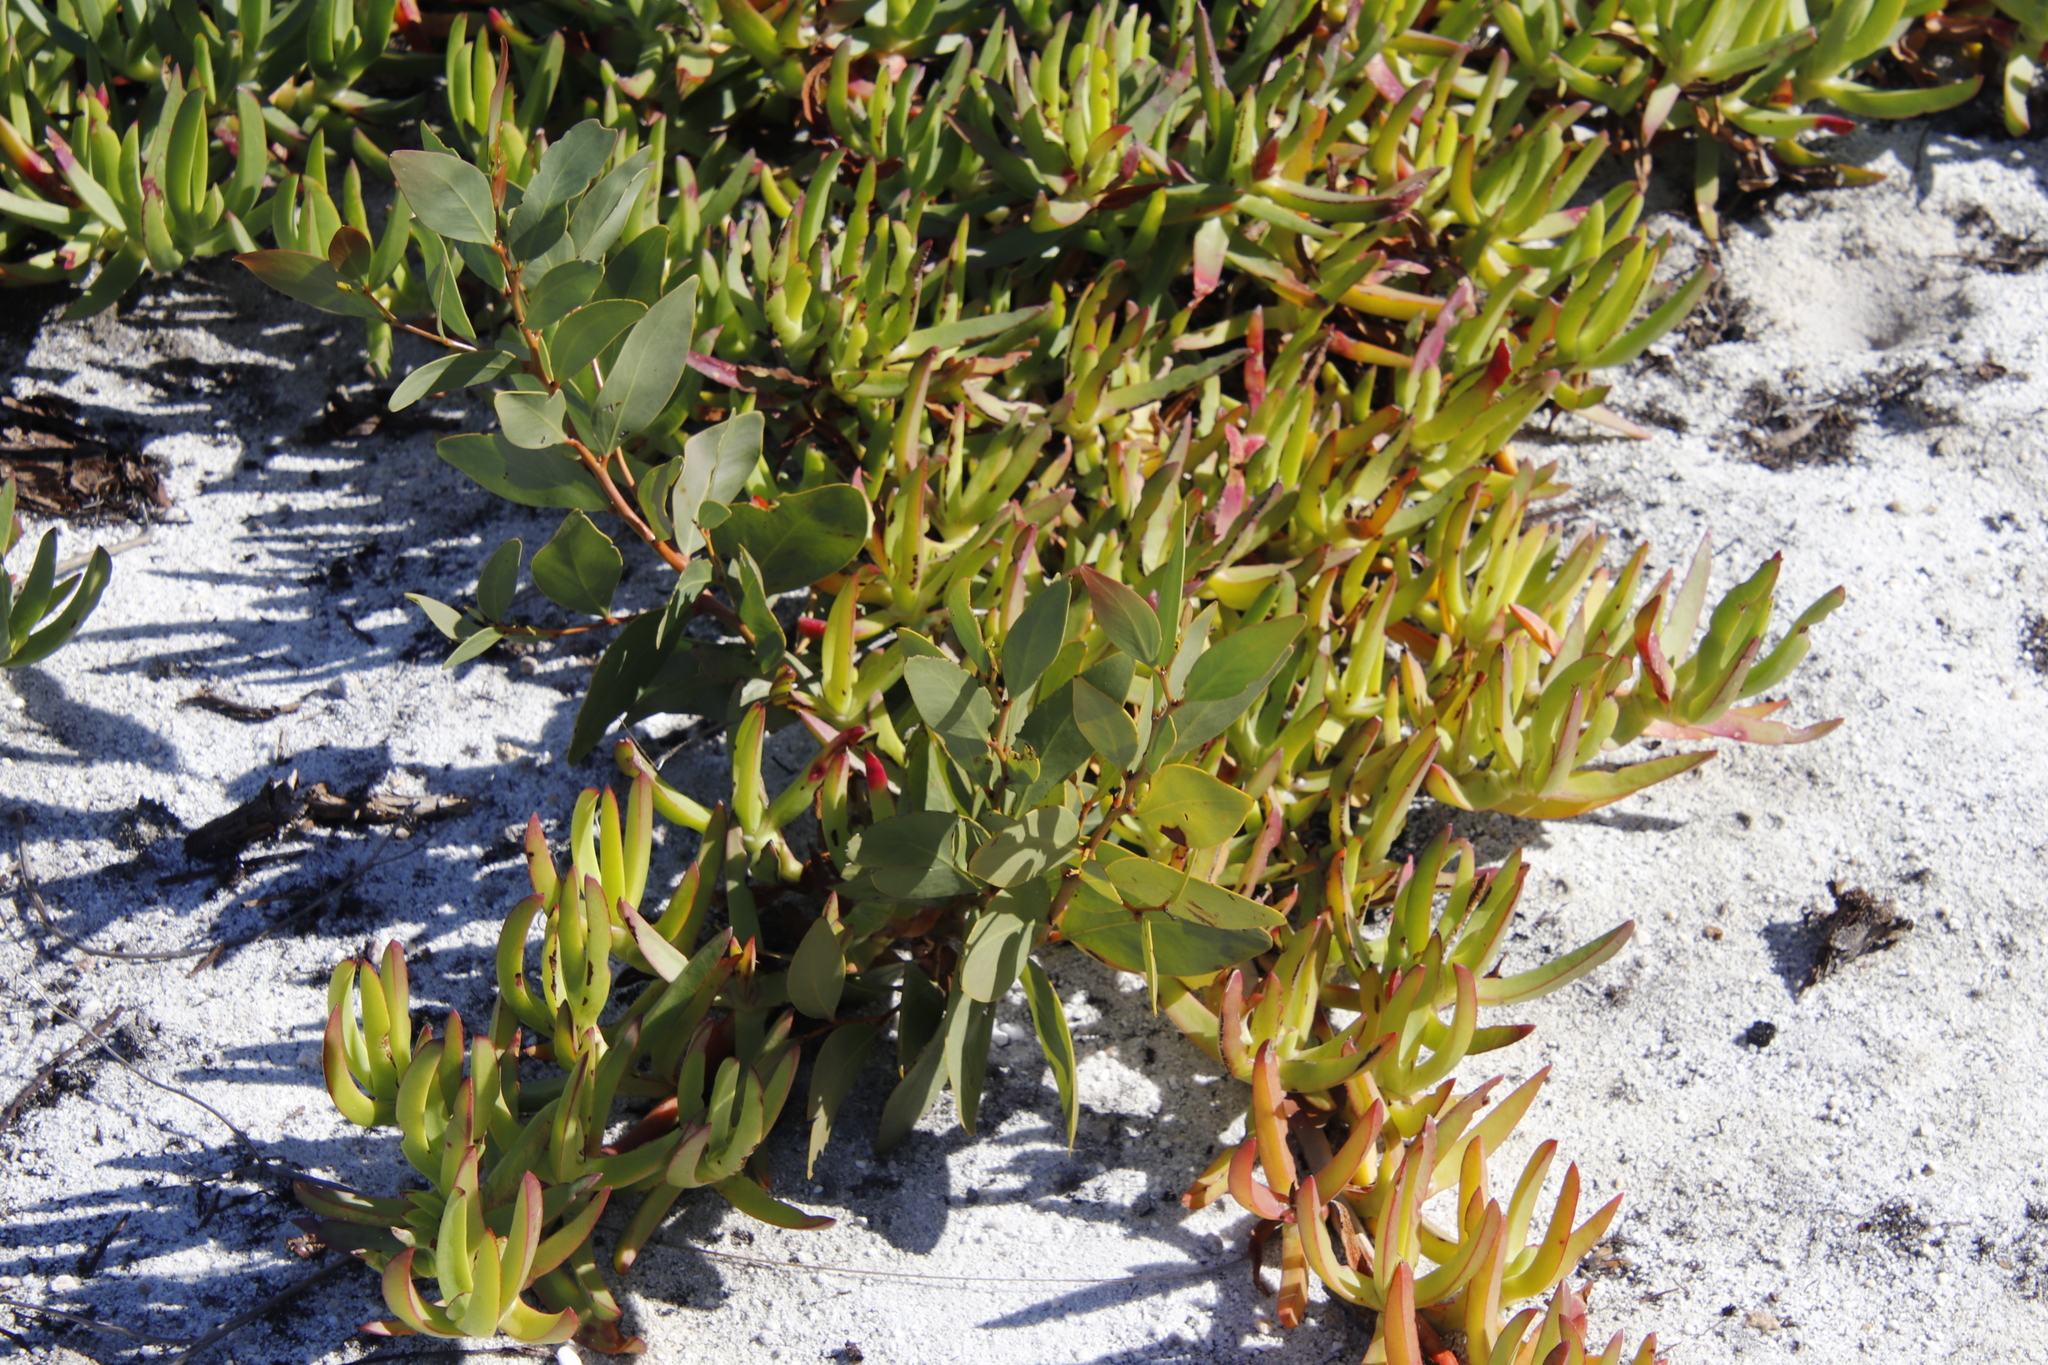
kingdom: Plantae
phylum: Tracheophyta
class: Magnoliopsida
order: Fabales
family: Fabaceae
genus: Acacia
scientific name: Acacia pycnantha
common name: Golden wattle
